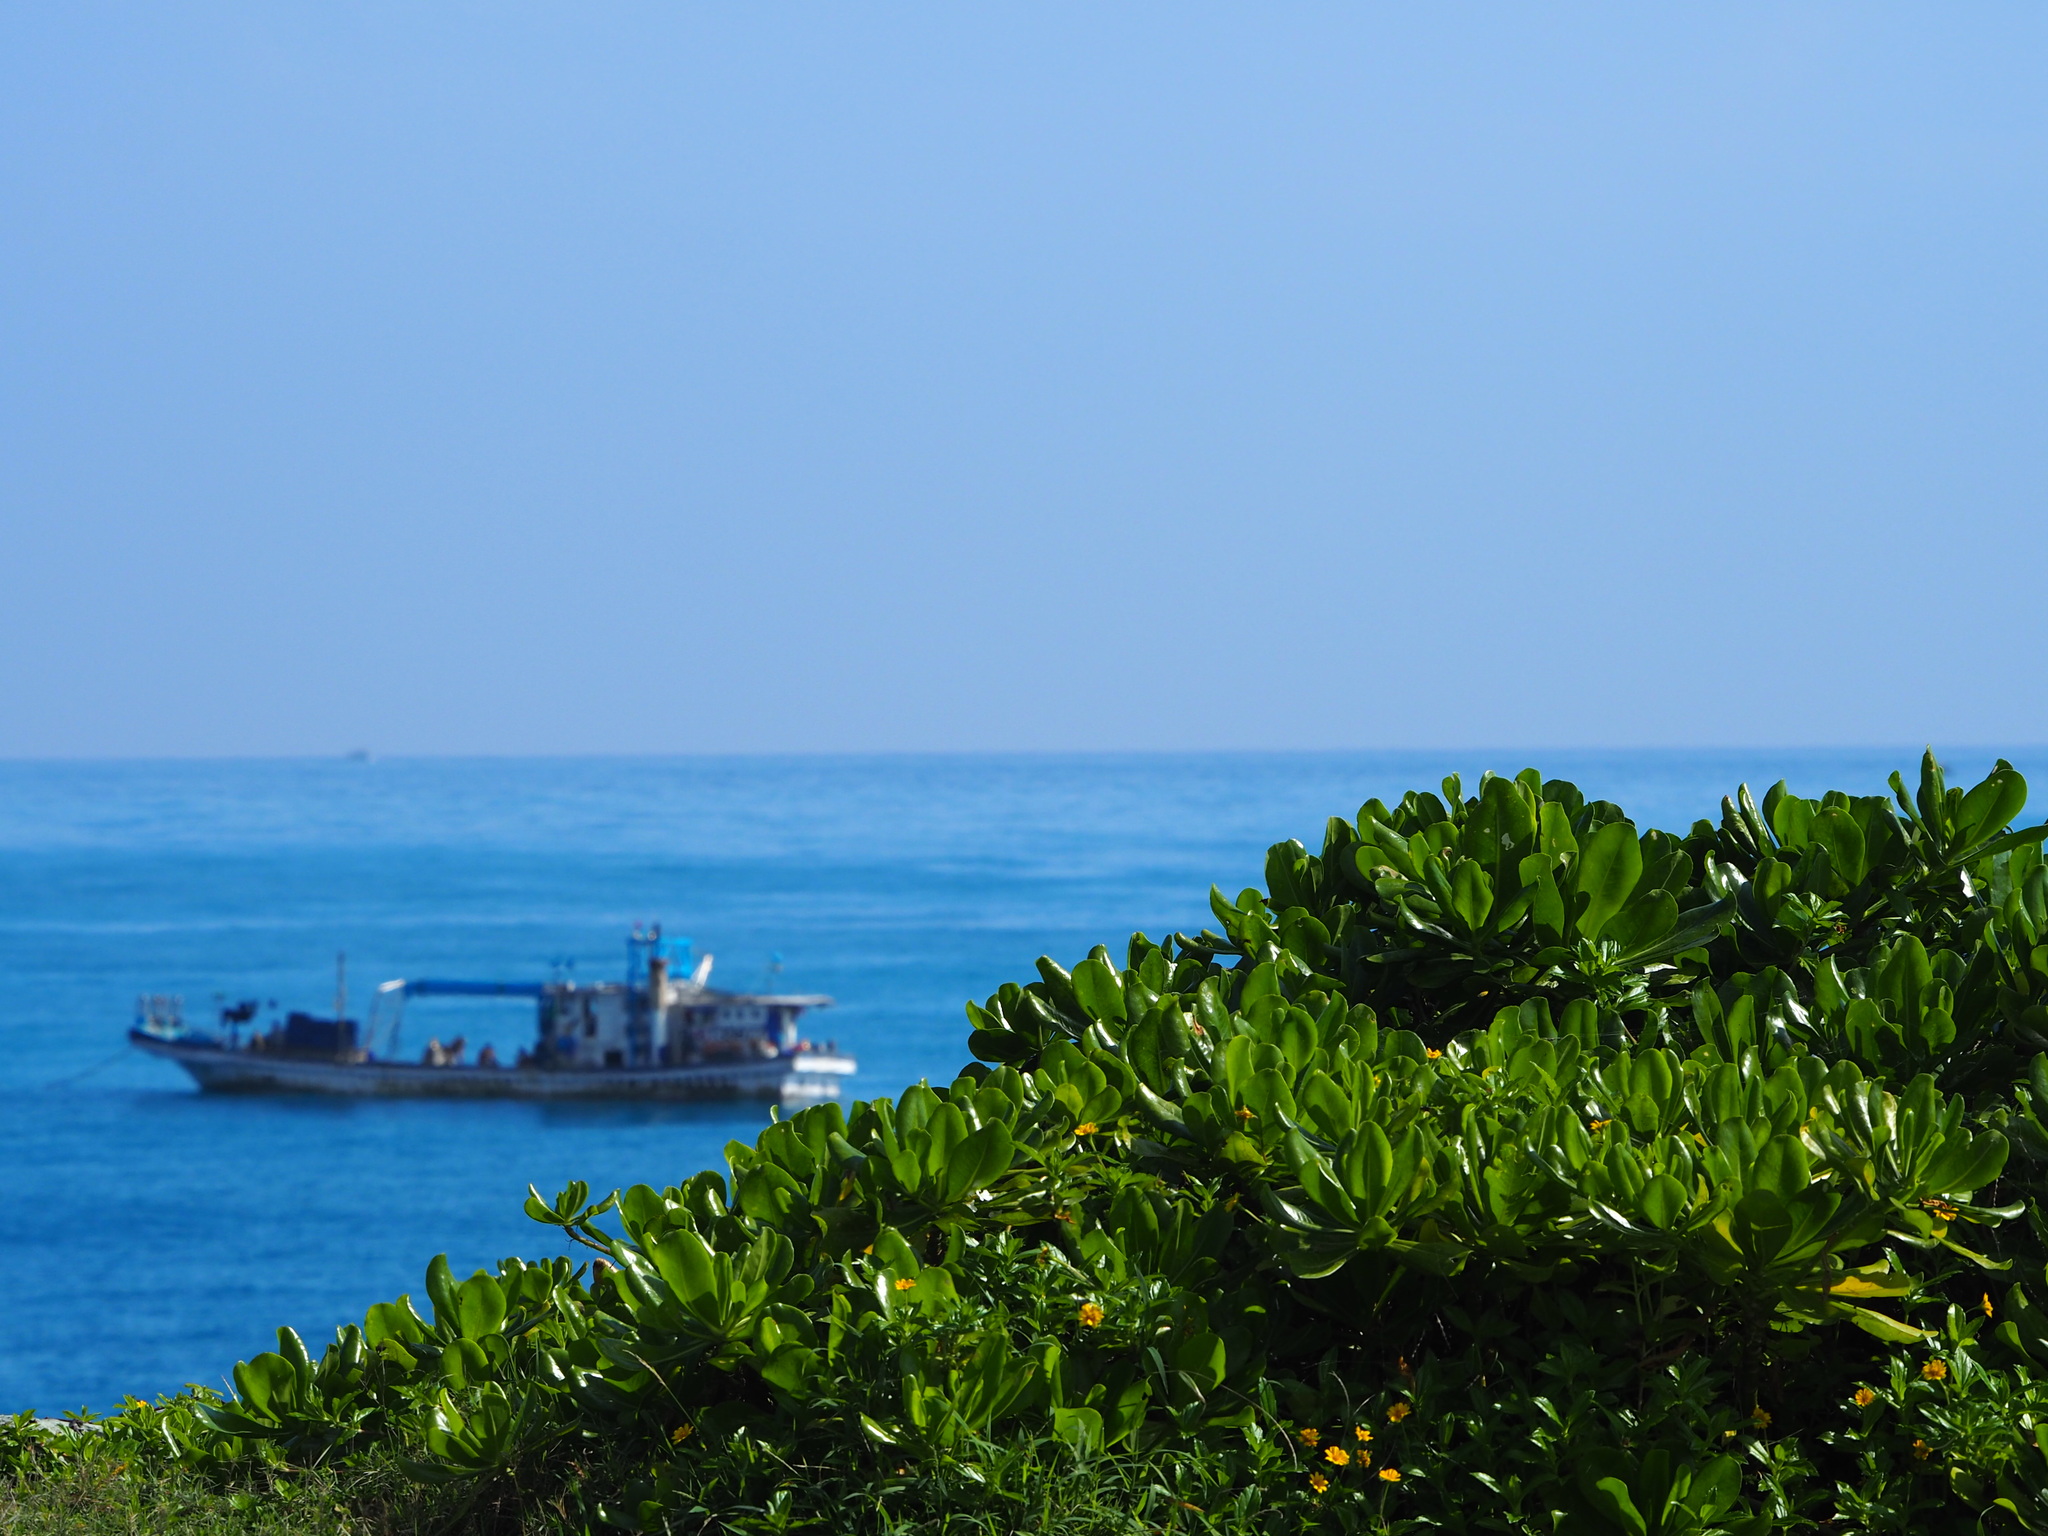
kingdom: Plantae
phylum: Tracheophyta
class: Magnoliopsida
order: Asterales
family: Goodeniaceae
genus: Scaevola
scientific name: Scaevola taccada
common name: Sea lettucetree
